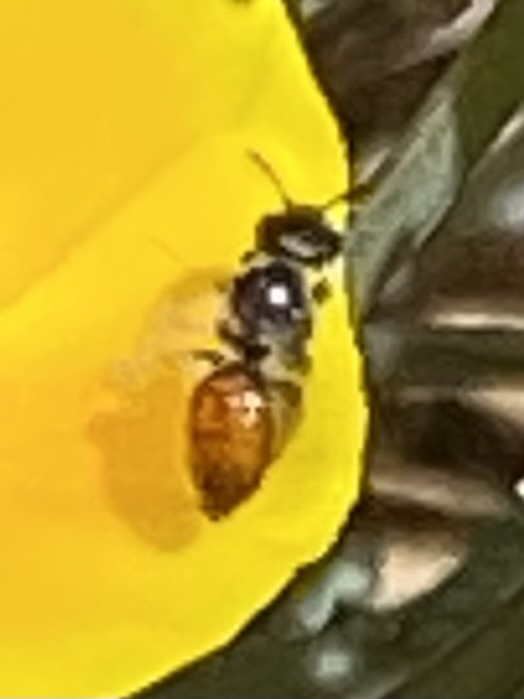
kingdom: Animalia
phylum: Arthropoda
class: Insecta
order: Hymenoptera
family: Halictidae
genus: Micralictoides
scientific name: Micralictoides ruficaudus
